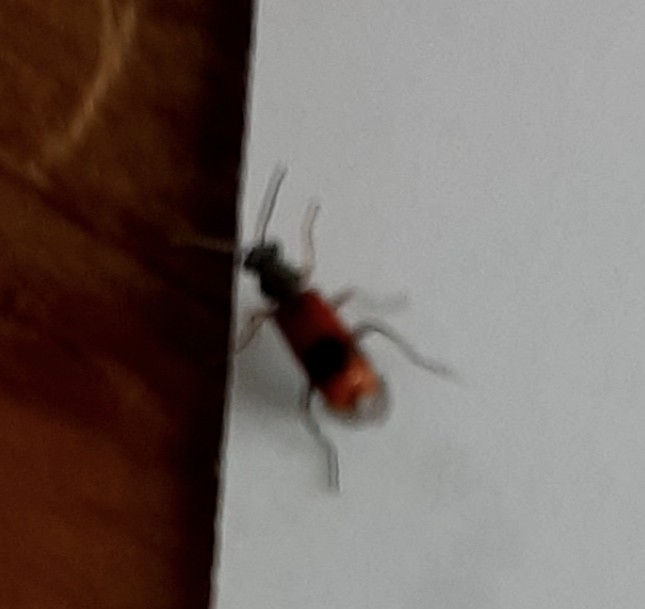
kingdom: Animalia
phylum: Arthropoda
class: Insecta
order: Coleoptera
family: Melyridae
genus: Anthocomus
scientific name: Anthocomus equestris
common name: Black-banded soft-winged flower beetle
